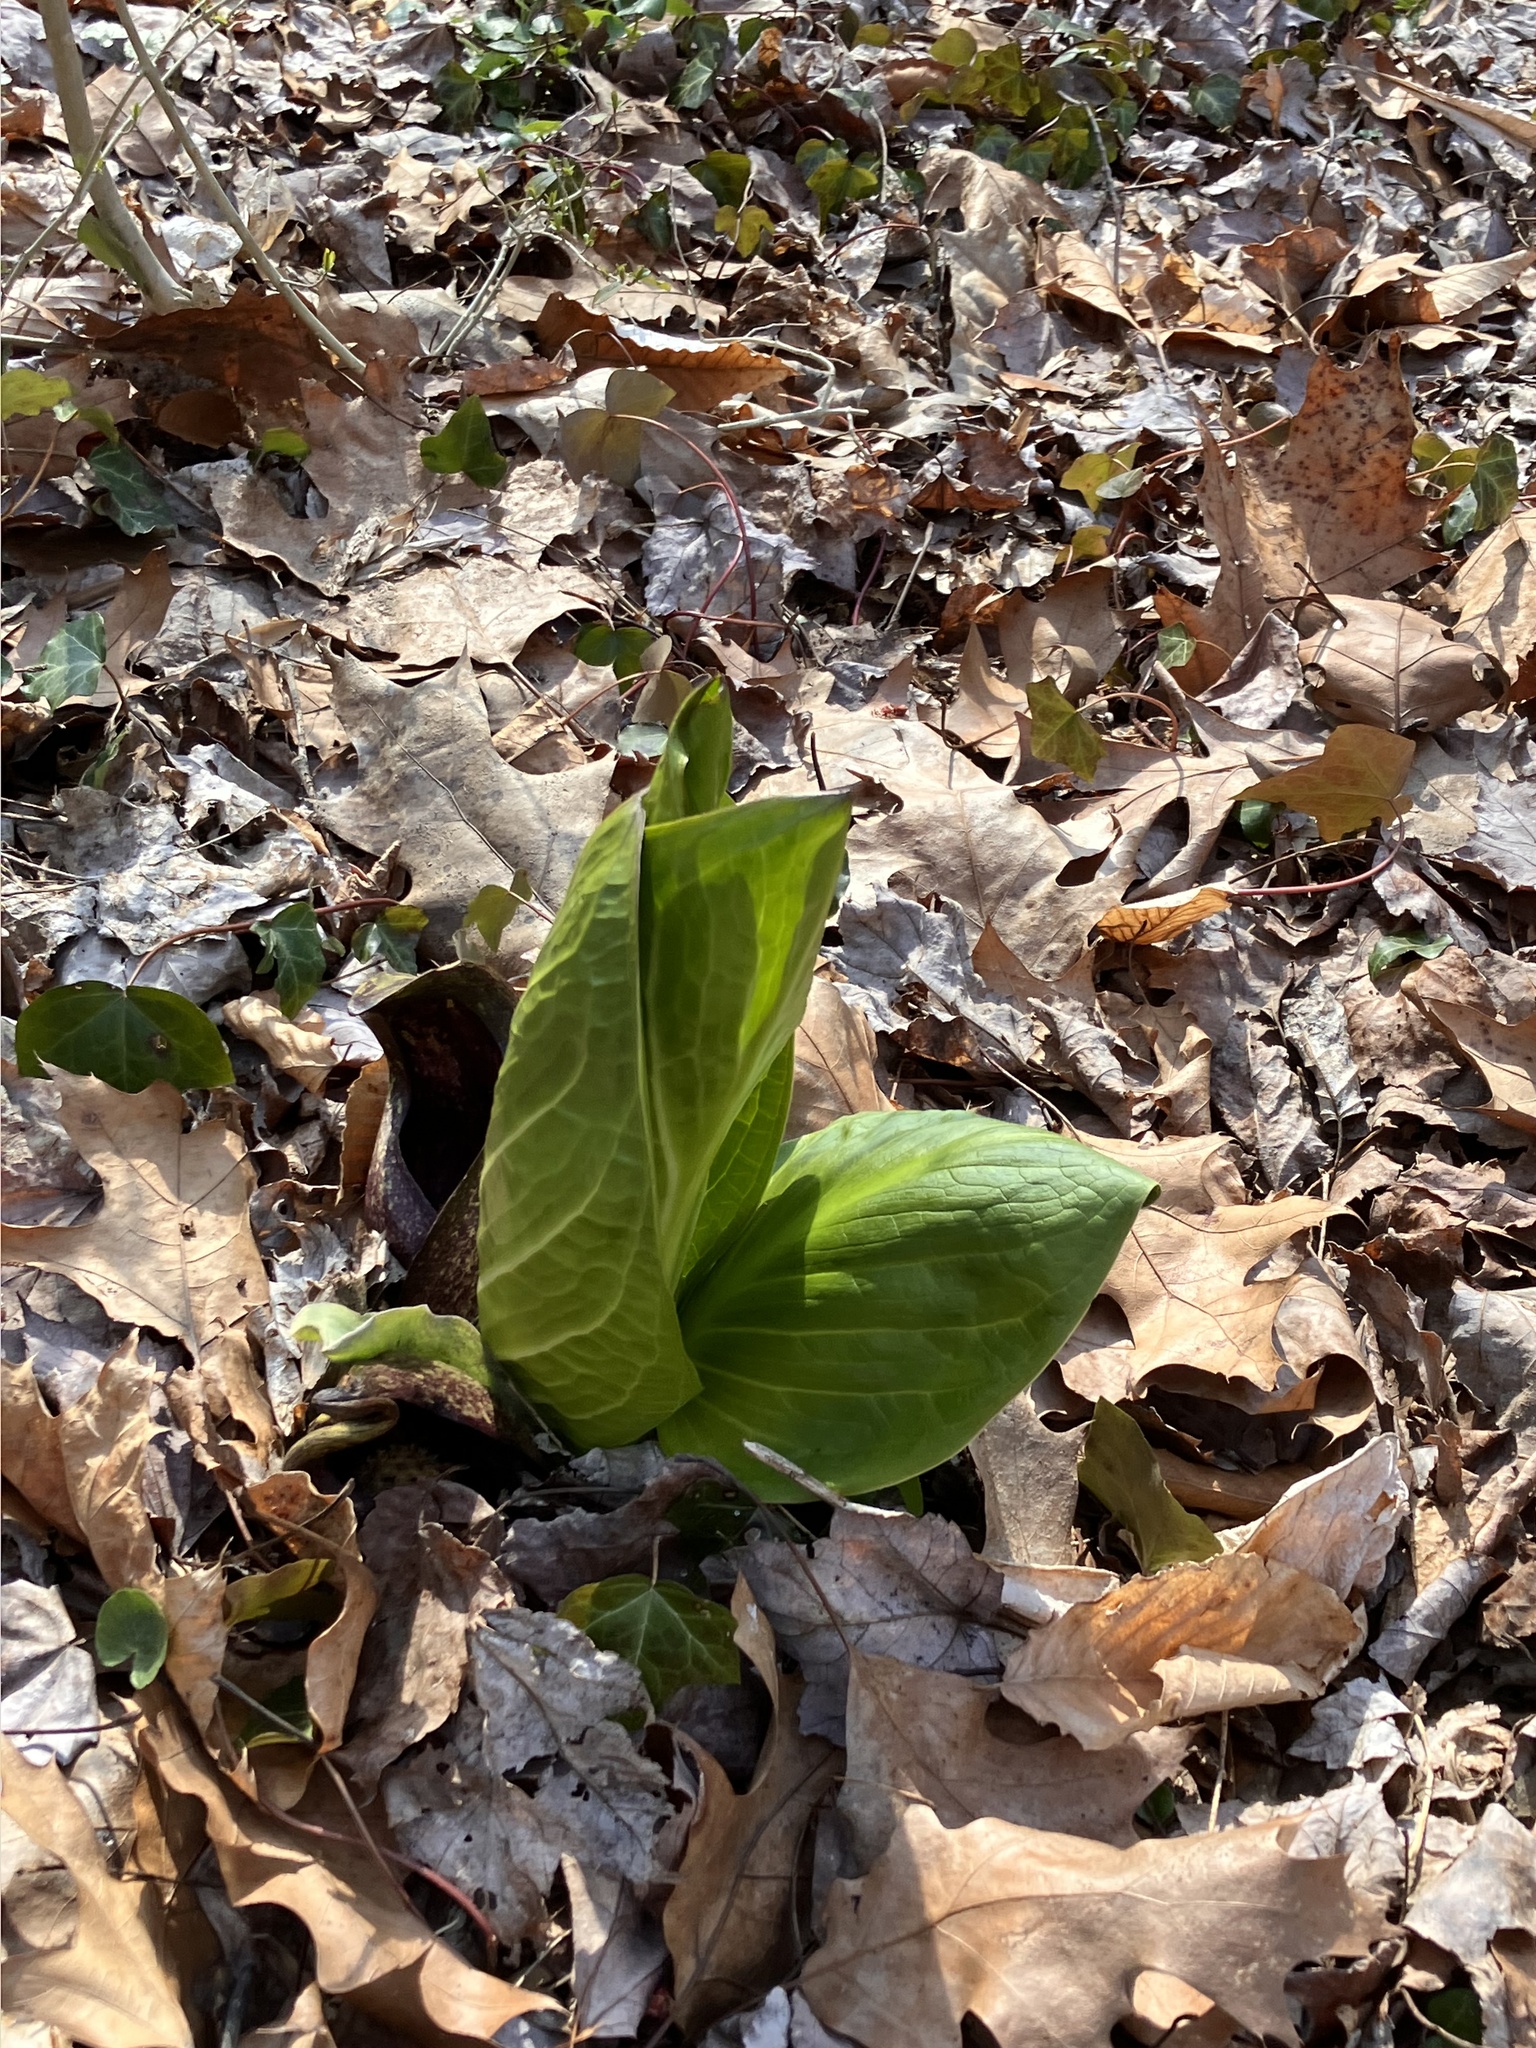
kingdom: Plantae
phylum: Tracheophyta
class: Liliopsida
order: Alismatales
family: Araceae
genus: Symplocarpus
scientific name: Symplocarpus foetidus
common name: Eastern skunk cabbage
